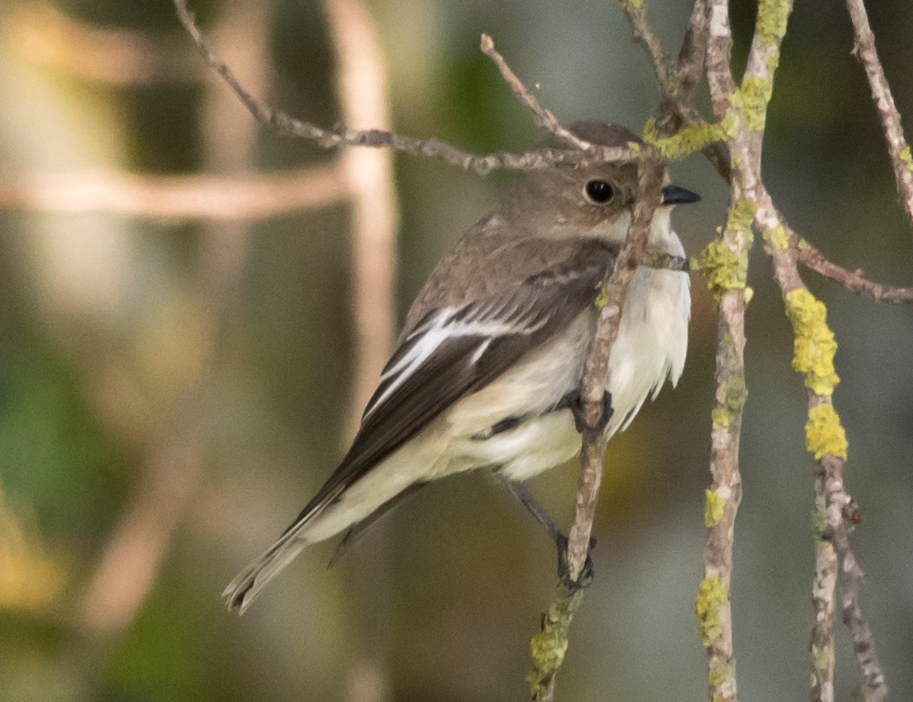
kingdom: Animalia
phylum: Chordata
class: Aves
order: Passeriformes
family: Muscicapidae
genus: Ficedula
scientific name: Ficedula hypoleuca
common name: European pied flycatcher
